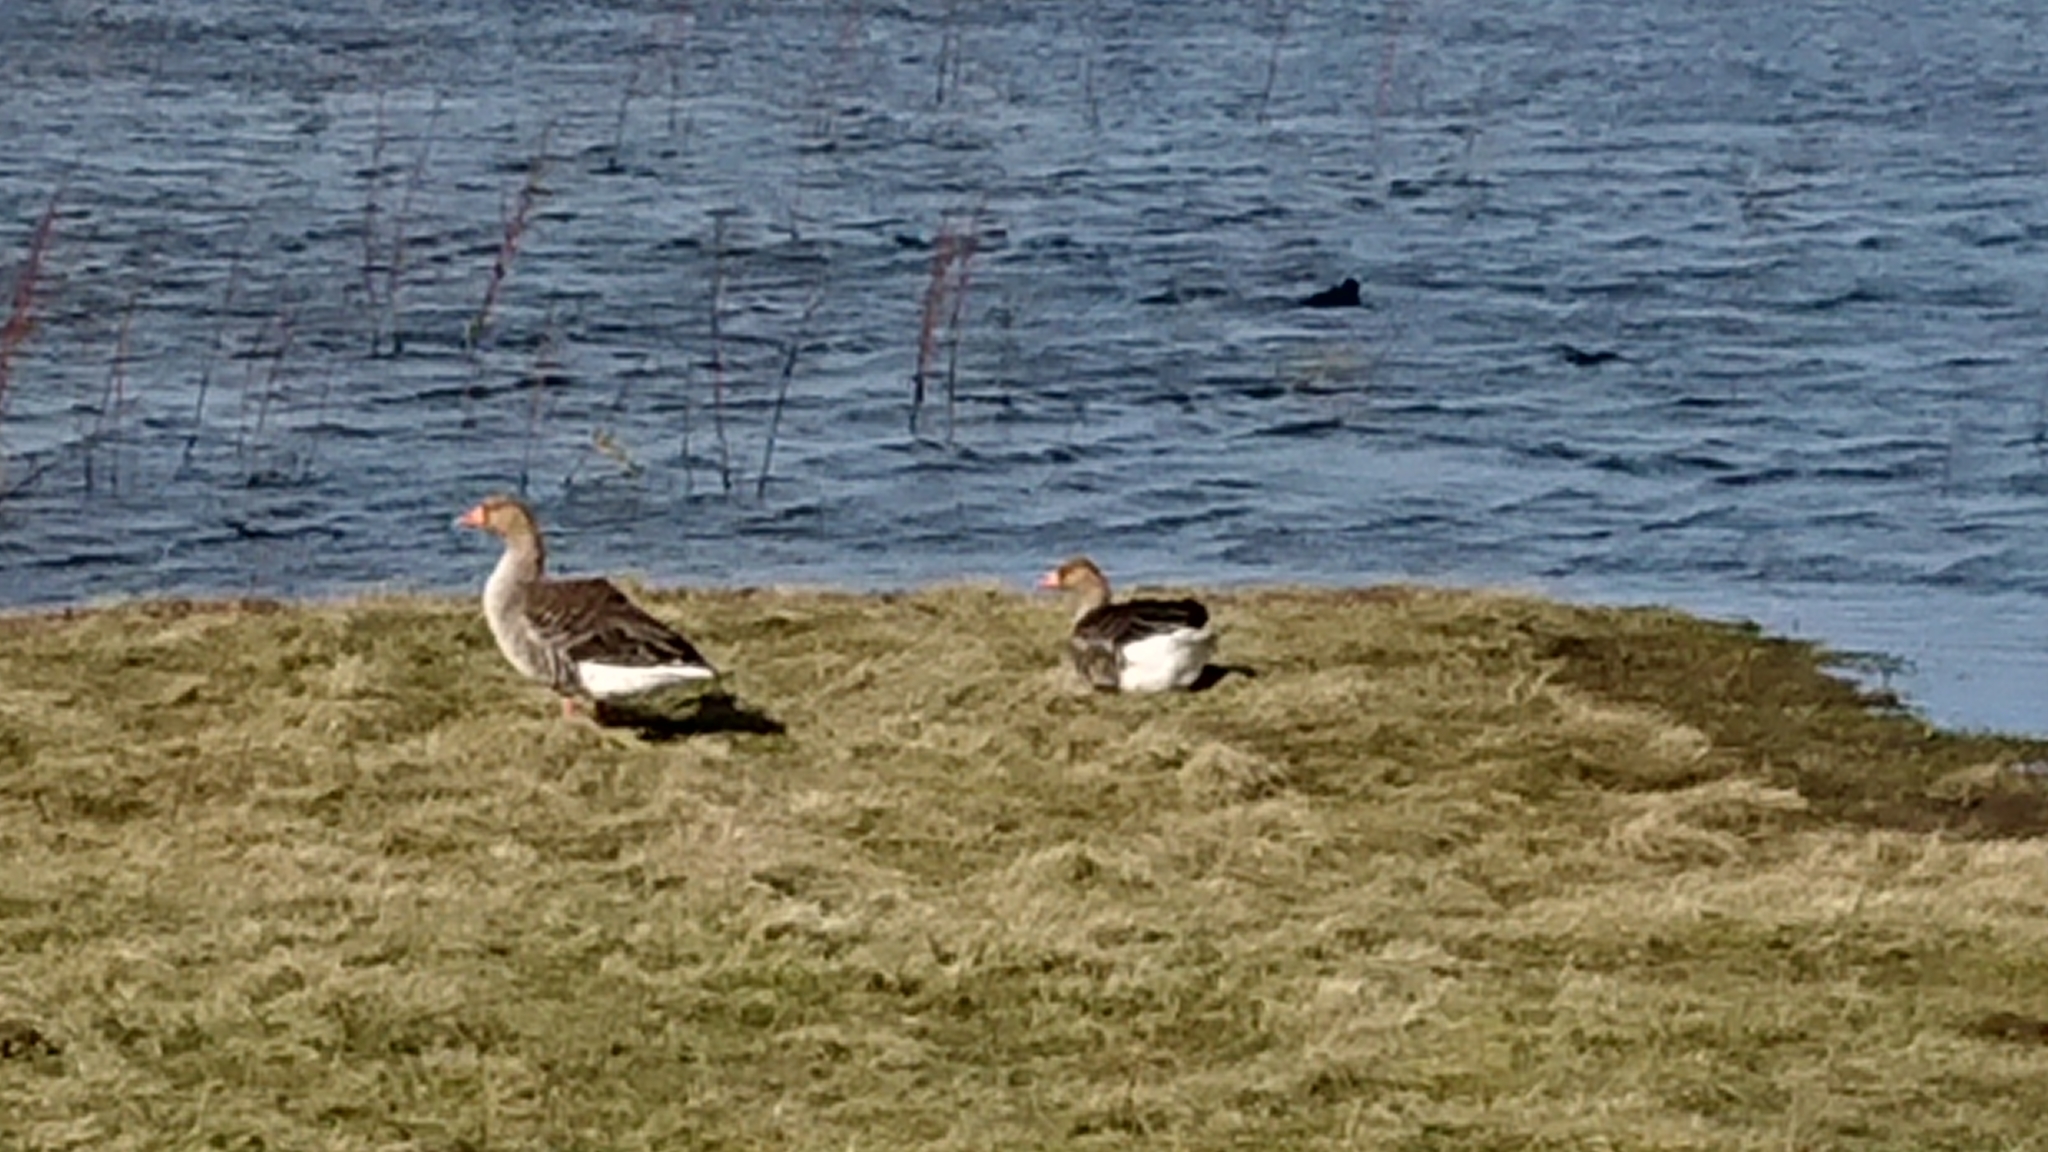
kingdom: Animalia
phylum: Chordata
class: Aves
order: Anseriformes
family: Anatidae
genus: Anser
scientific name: Anser anser
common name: Greylag goose
